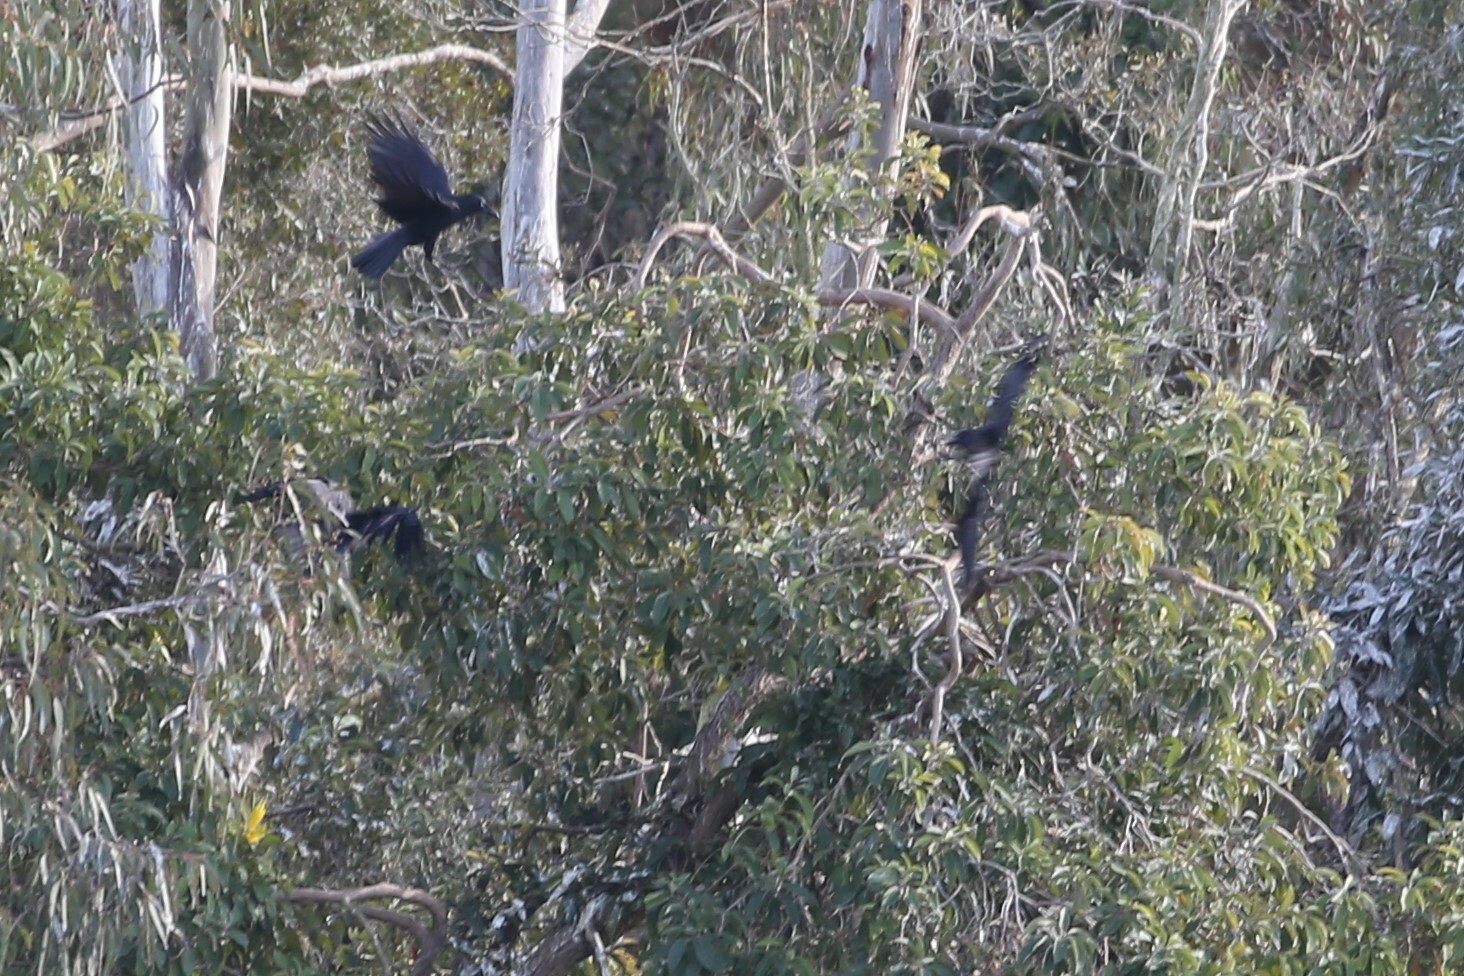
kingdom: Animalia
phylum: Chordata
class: Aves
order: Passeriformes
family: Corvidae
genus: Corvus
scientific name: Corvus orru
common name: Torresian crow
